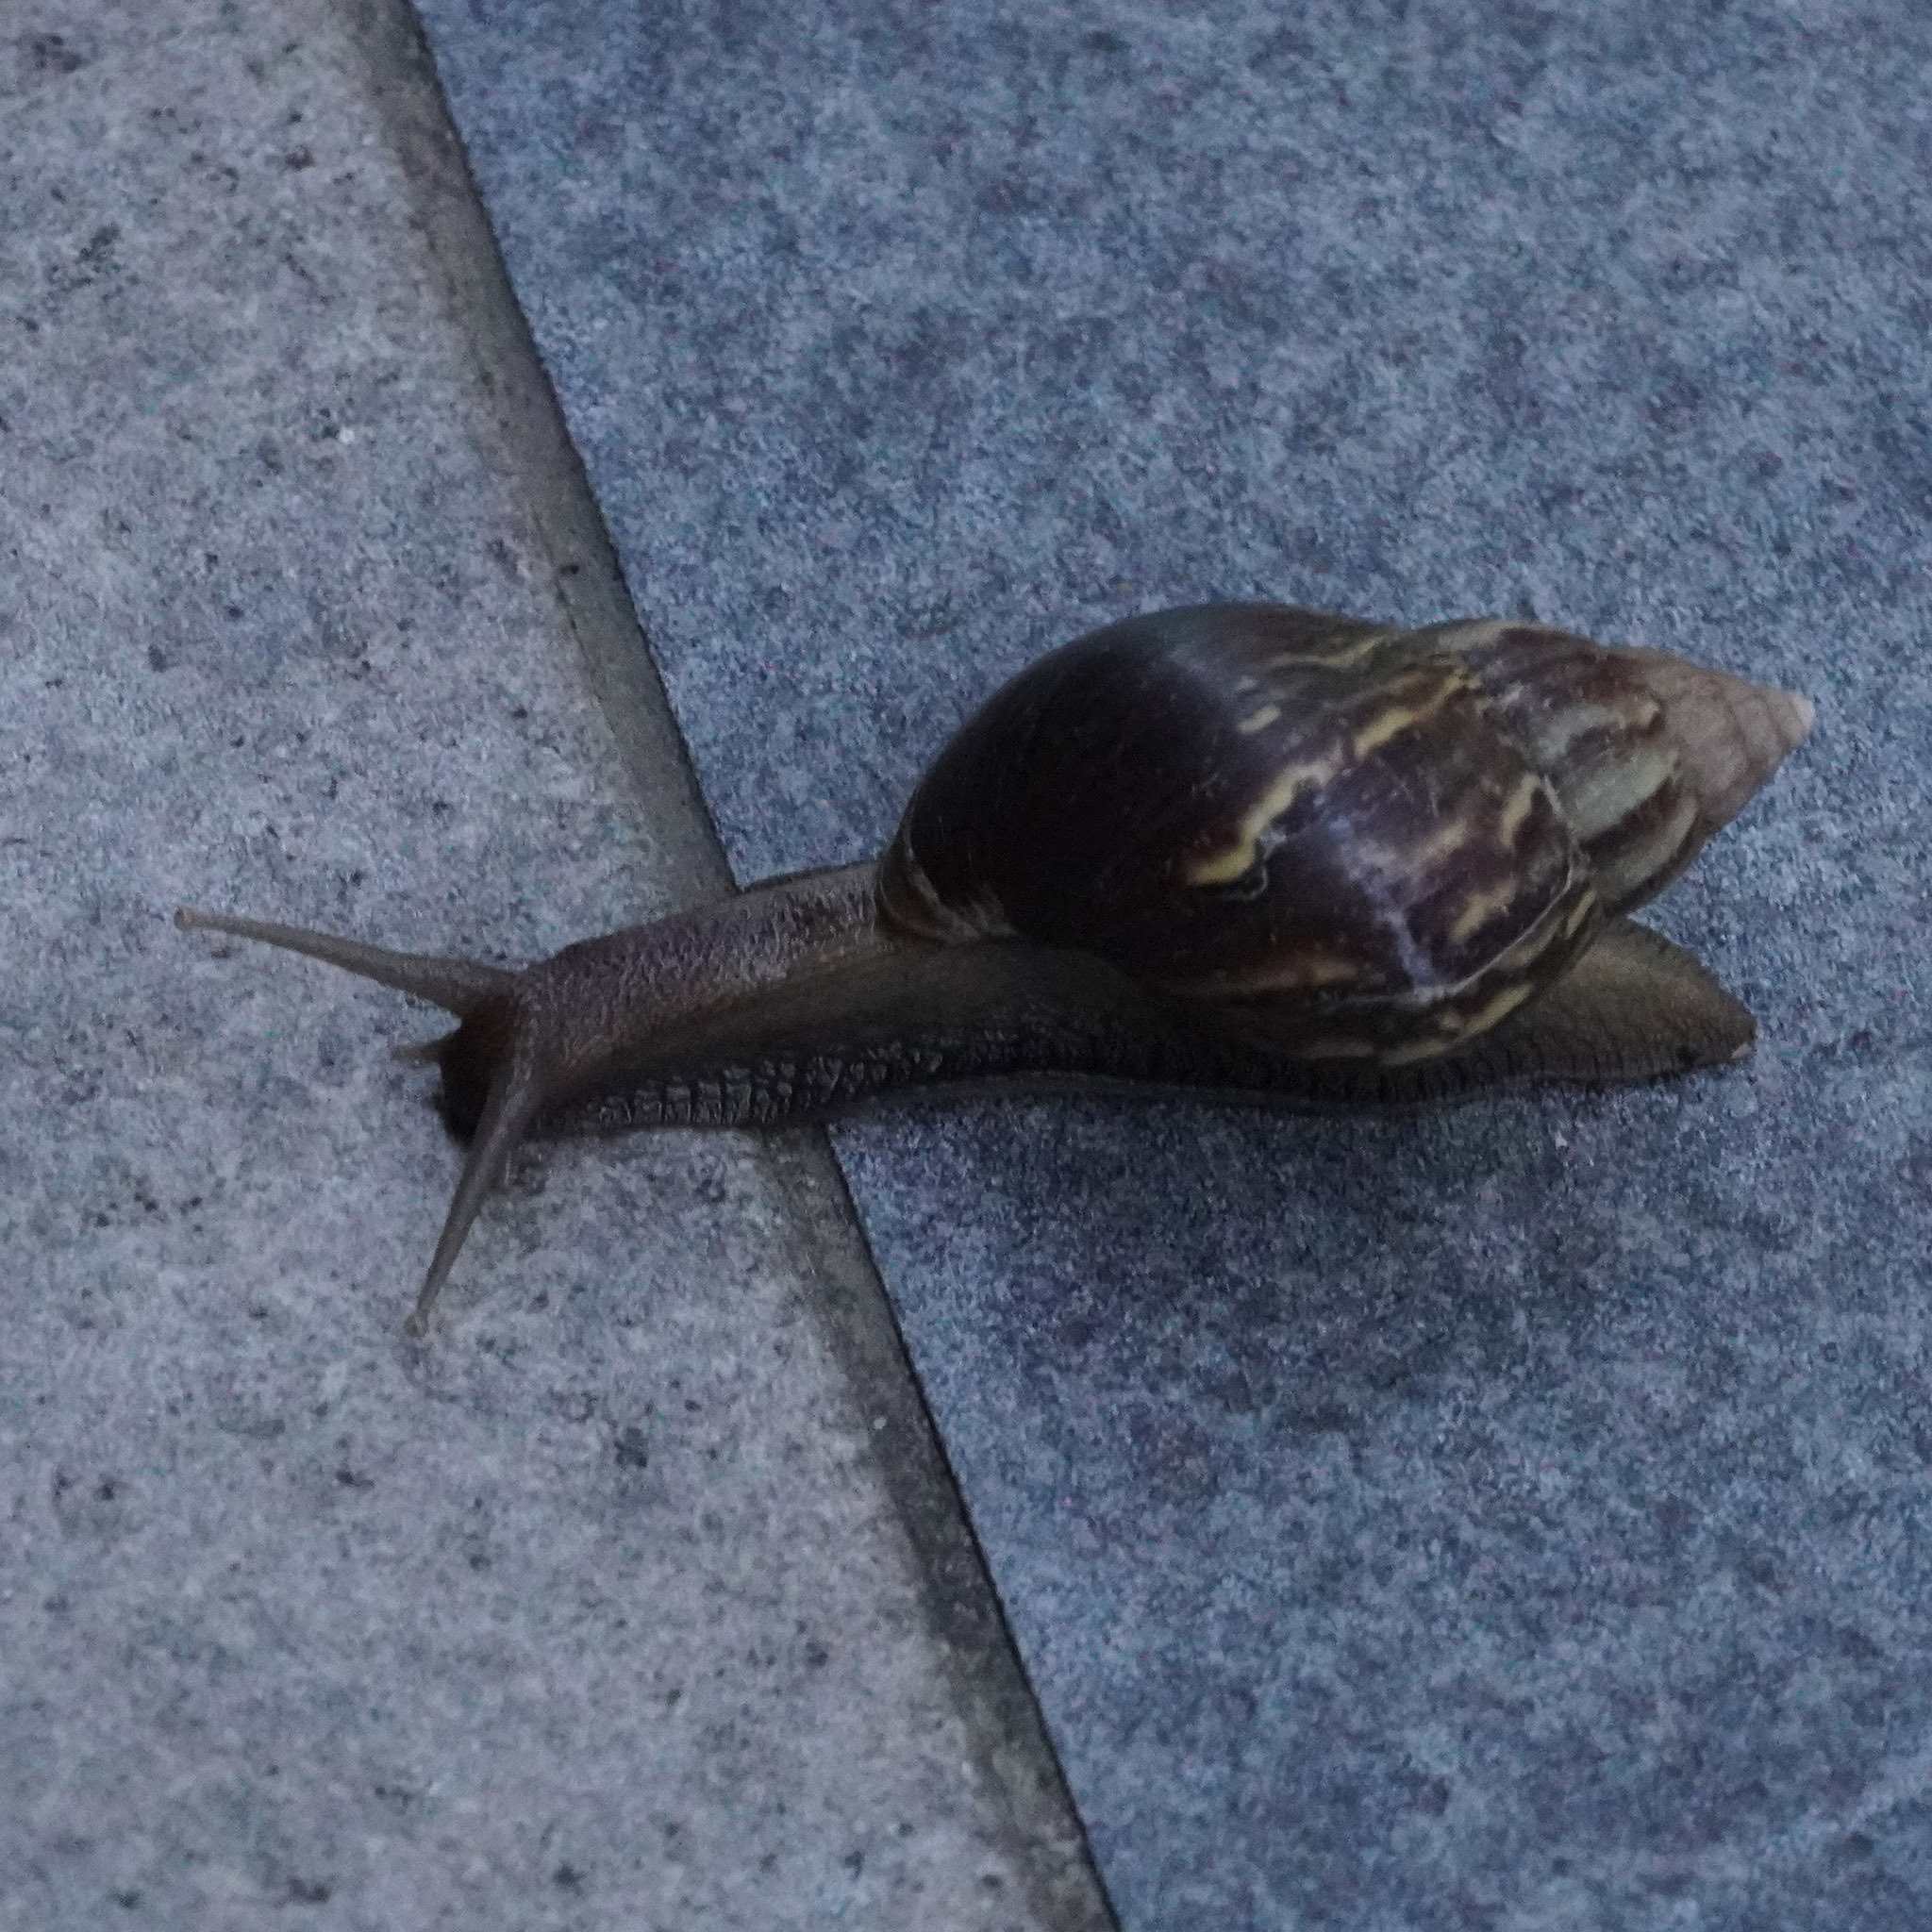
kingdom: Animalia
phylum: Mollusca
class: Gastropoda
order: Stylommatophora
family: Achatinidae
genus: Lissachatina
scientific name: Lissachatina fulica
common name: Giant african snail
